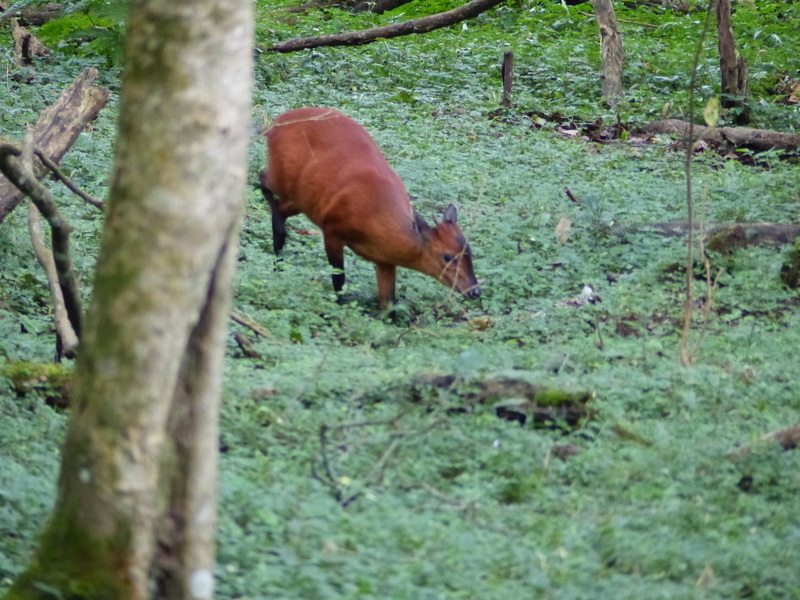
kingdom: Animalia
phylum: Chordata
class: Mammalia
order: Artiodactyla
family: Bovidae
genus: Cephalophus
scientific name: Cephalophus natalensis
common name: Red duiker
